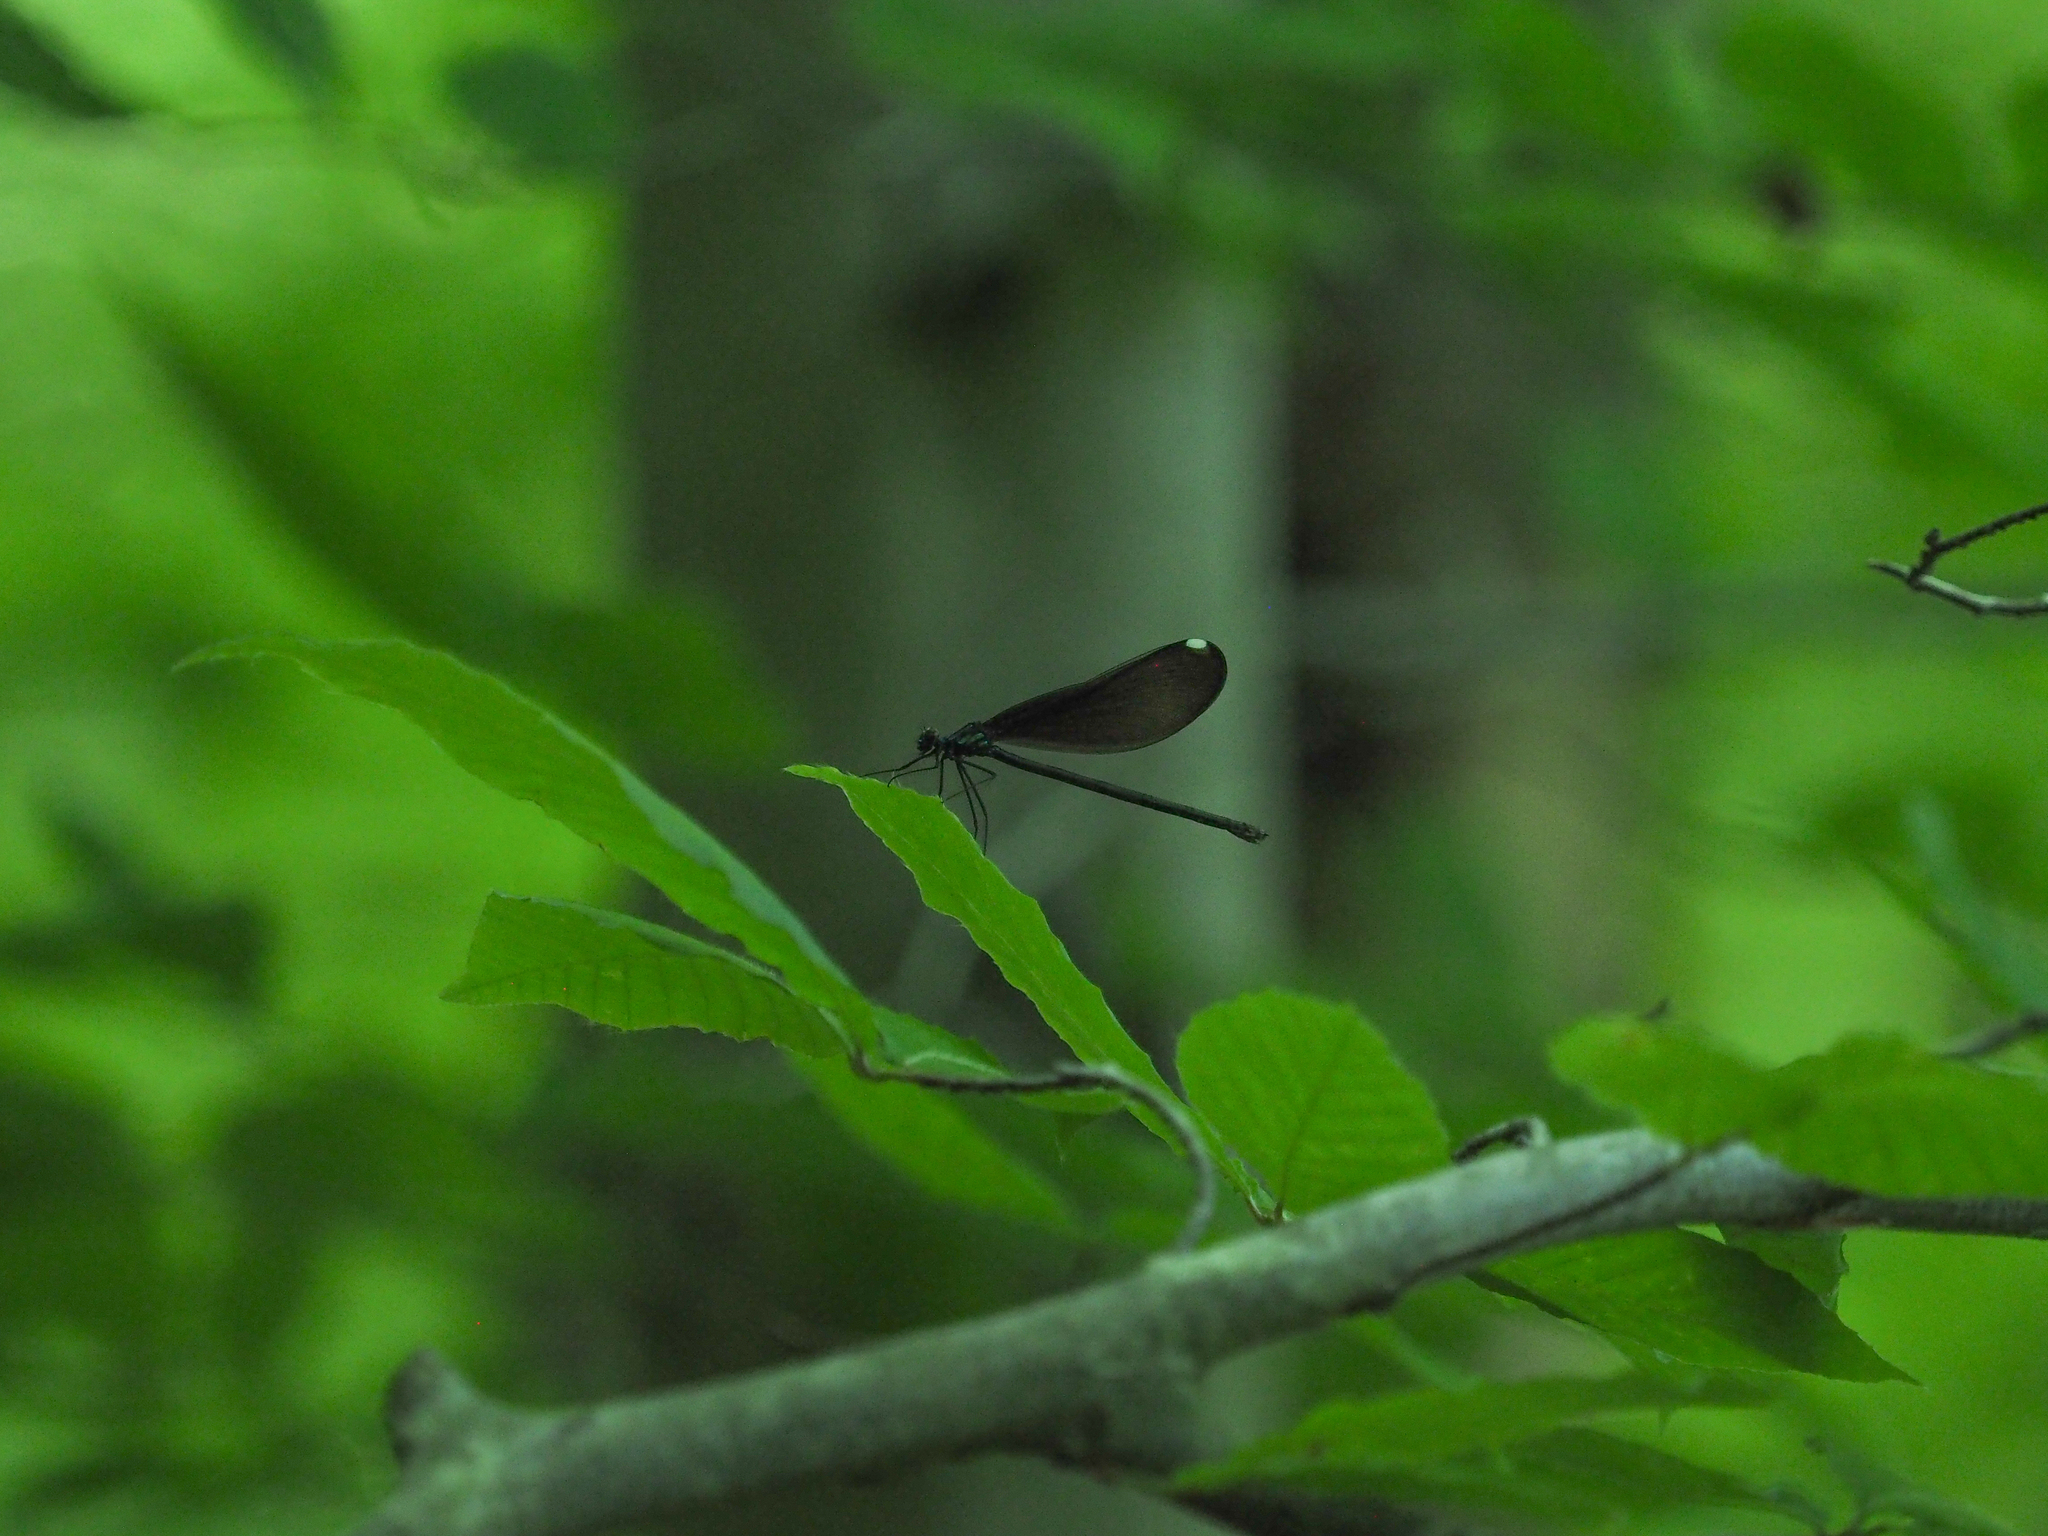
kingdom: Animalia
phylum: Arthropoda
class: Insecta
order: Odonata
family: Calopterygidae
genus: Calopteryx
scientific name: Calopteryx maculata
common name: Ebony jewelwing
